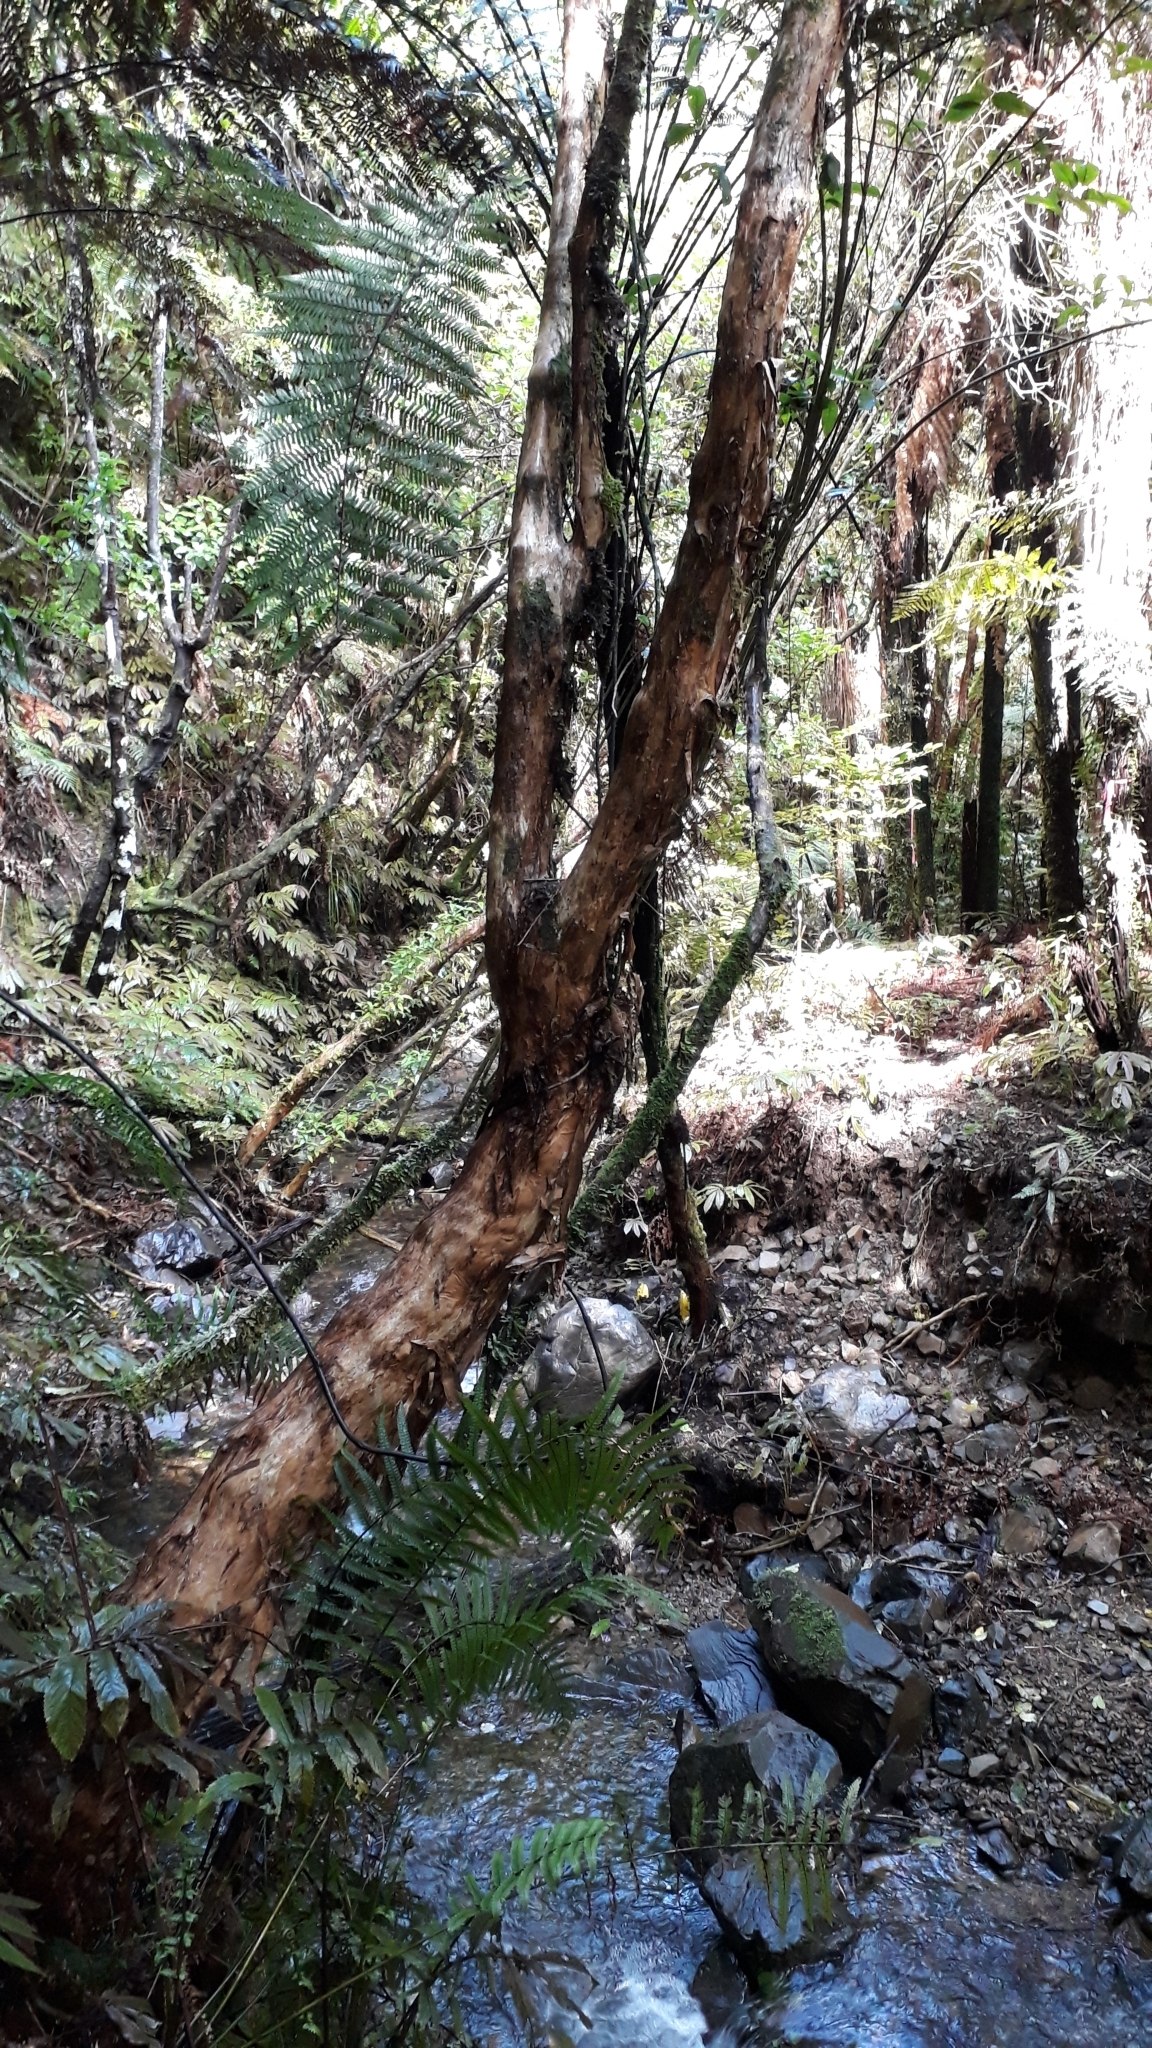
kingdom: Plantae
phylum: Tracheophyta
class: Magnoliopsida
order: Myrtales
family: Onagraceae
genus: Fuchsia
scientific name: Fuchsia excorticata
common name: Tree fuchsia
